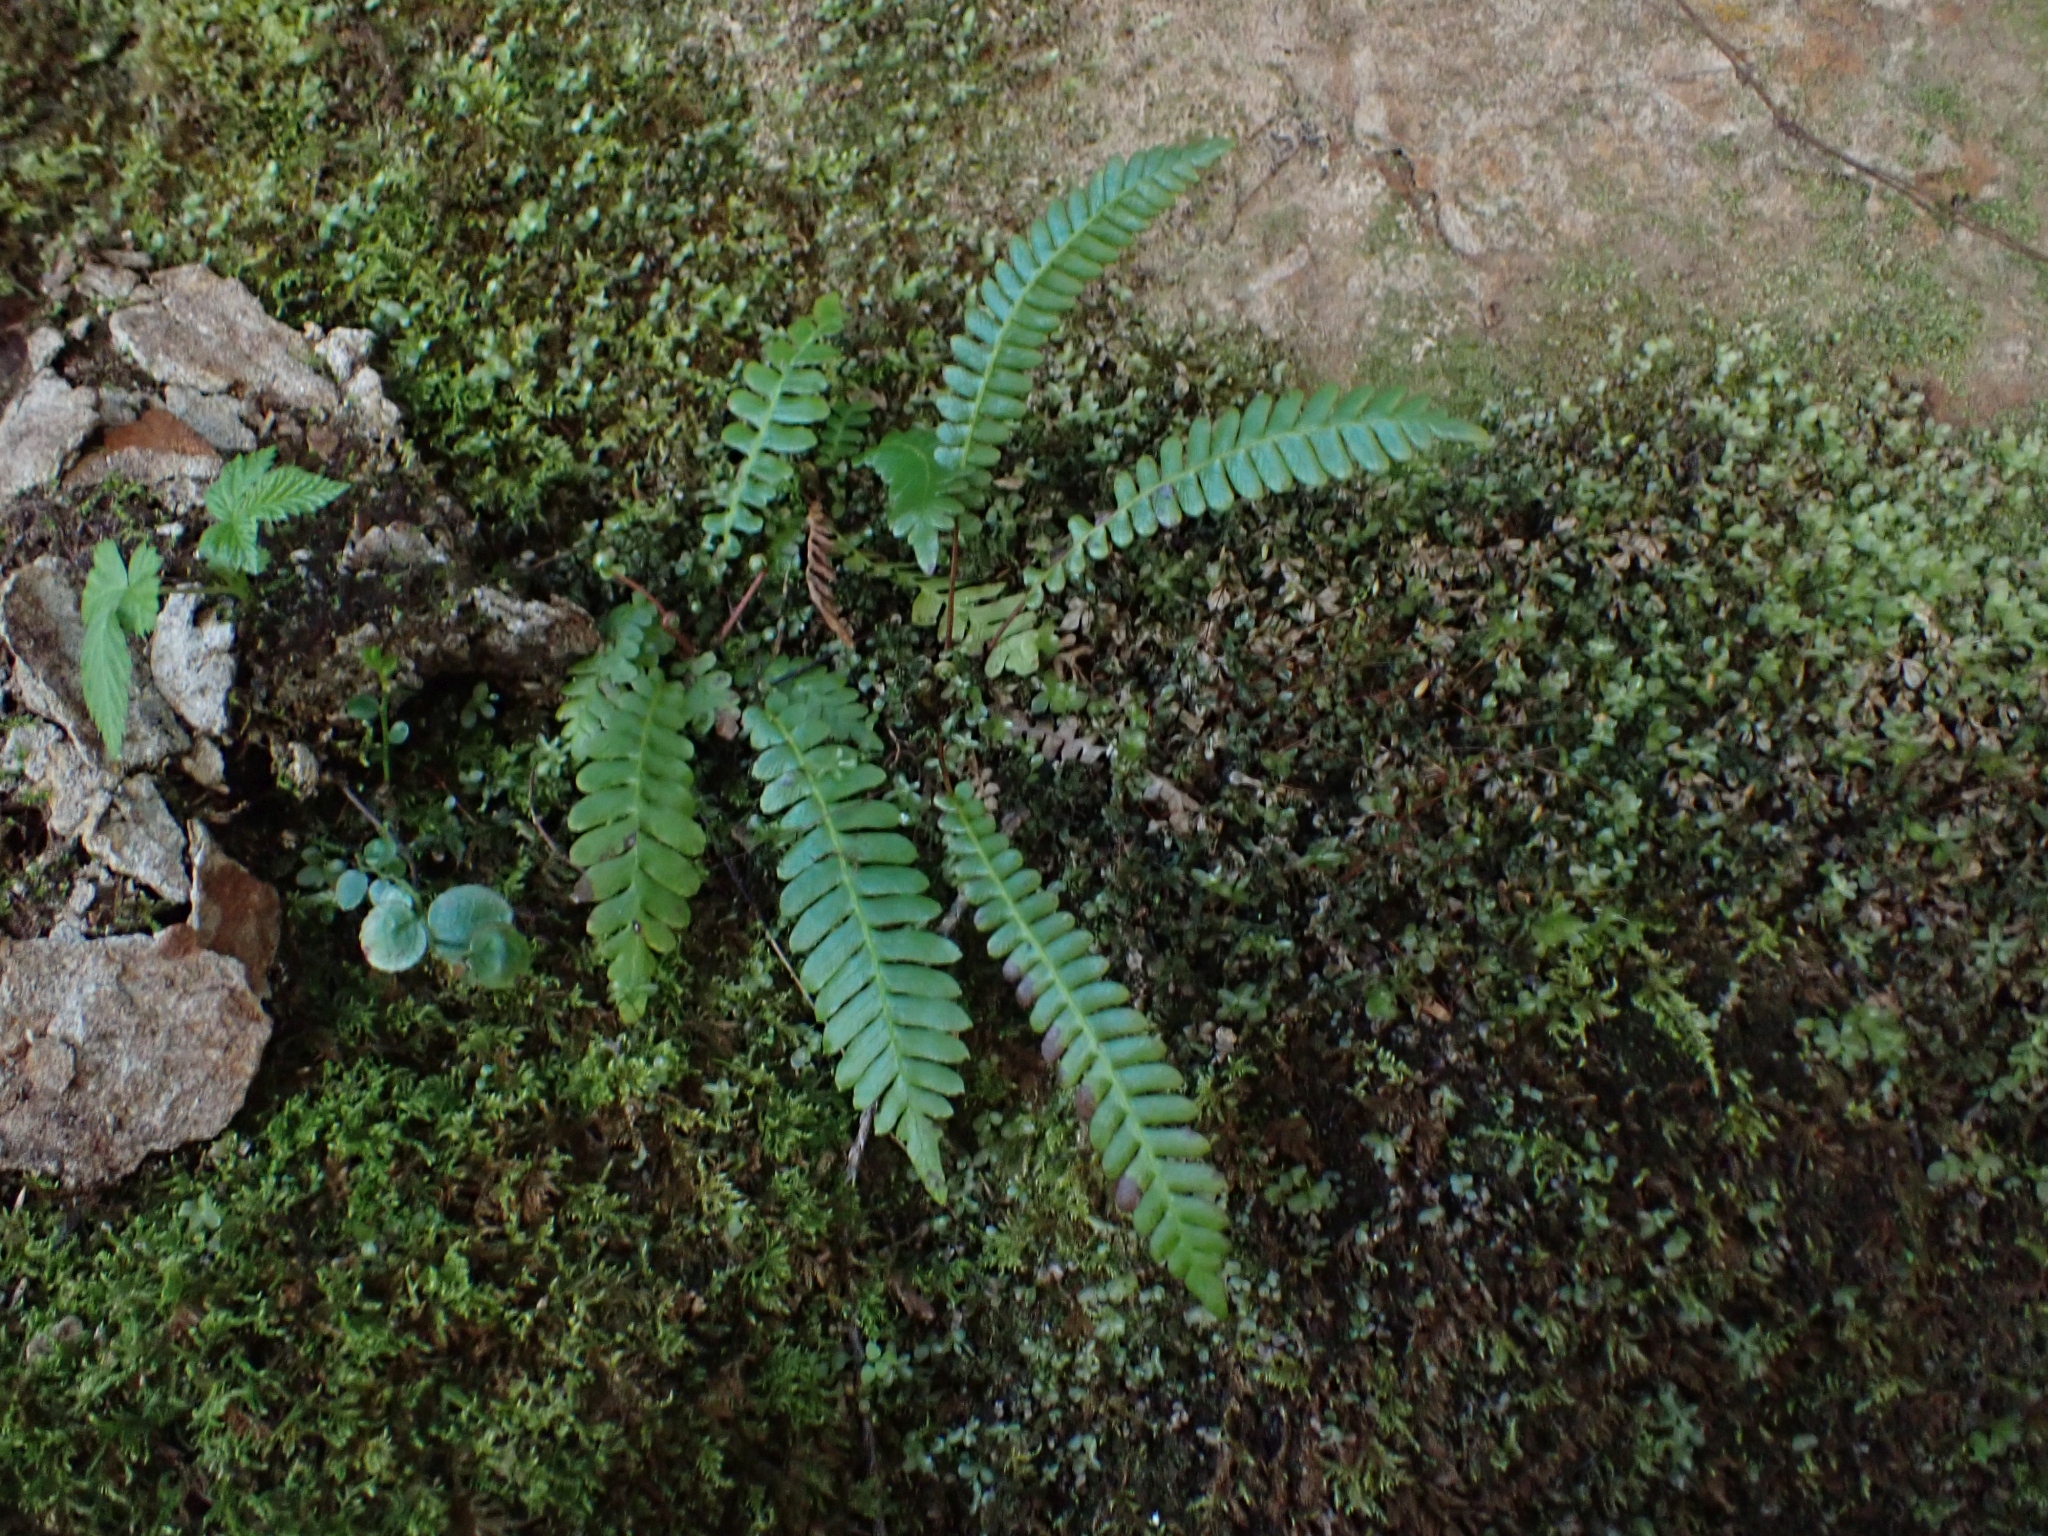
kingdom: Plantae
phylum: Tracheophyta
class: Polypodiopsida
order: Polypodiales
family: Blechnaceae
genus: Struthiopteris
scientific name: Struthiopteris spicant
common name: Deer fern
